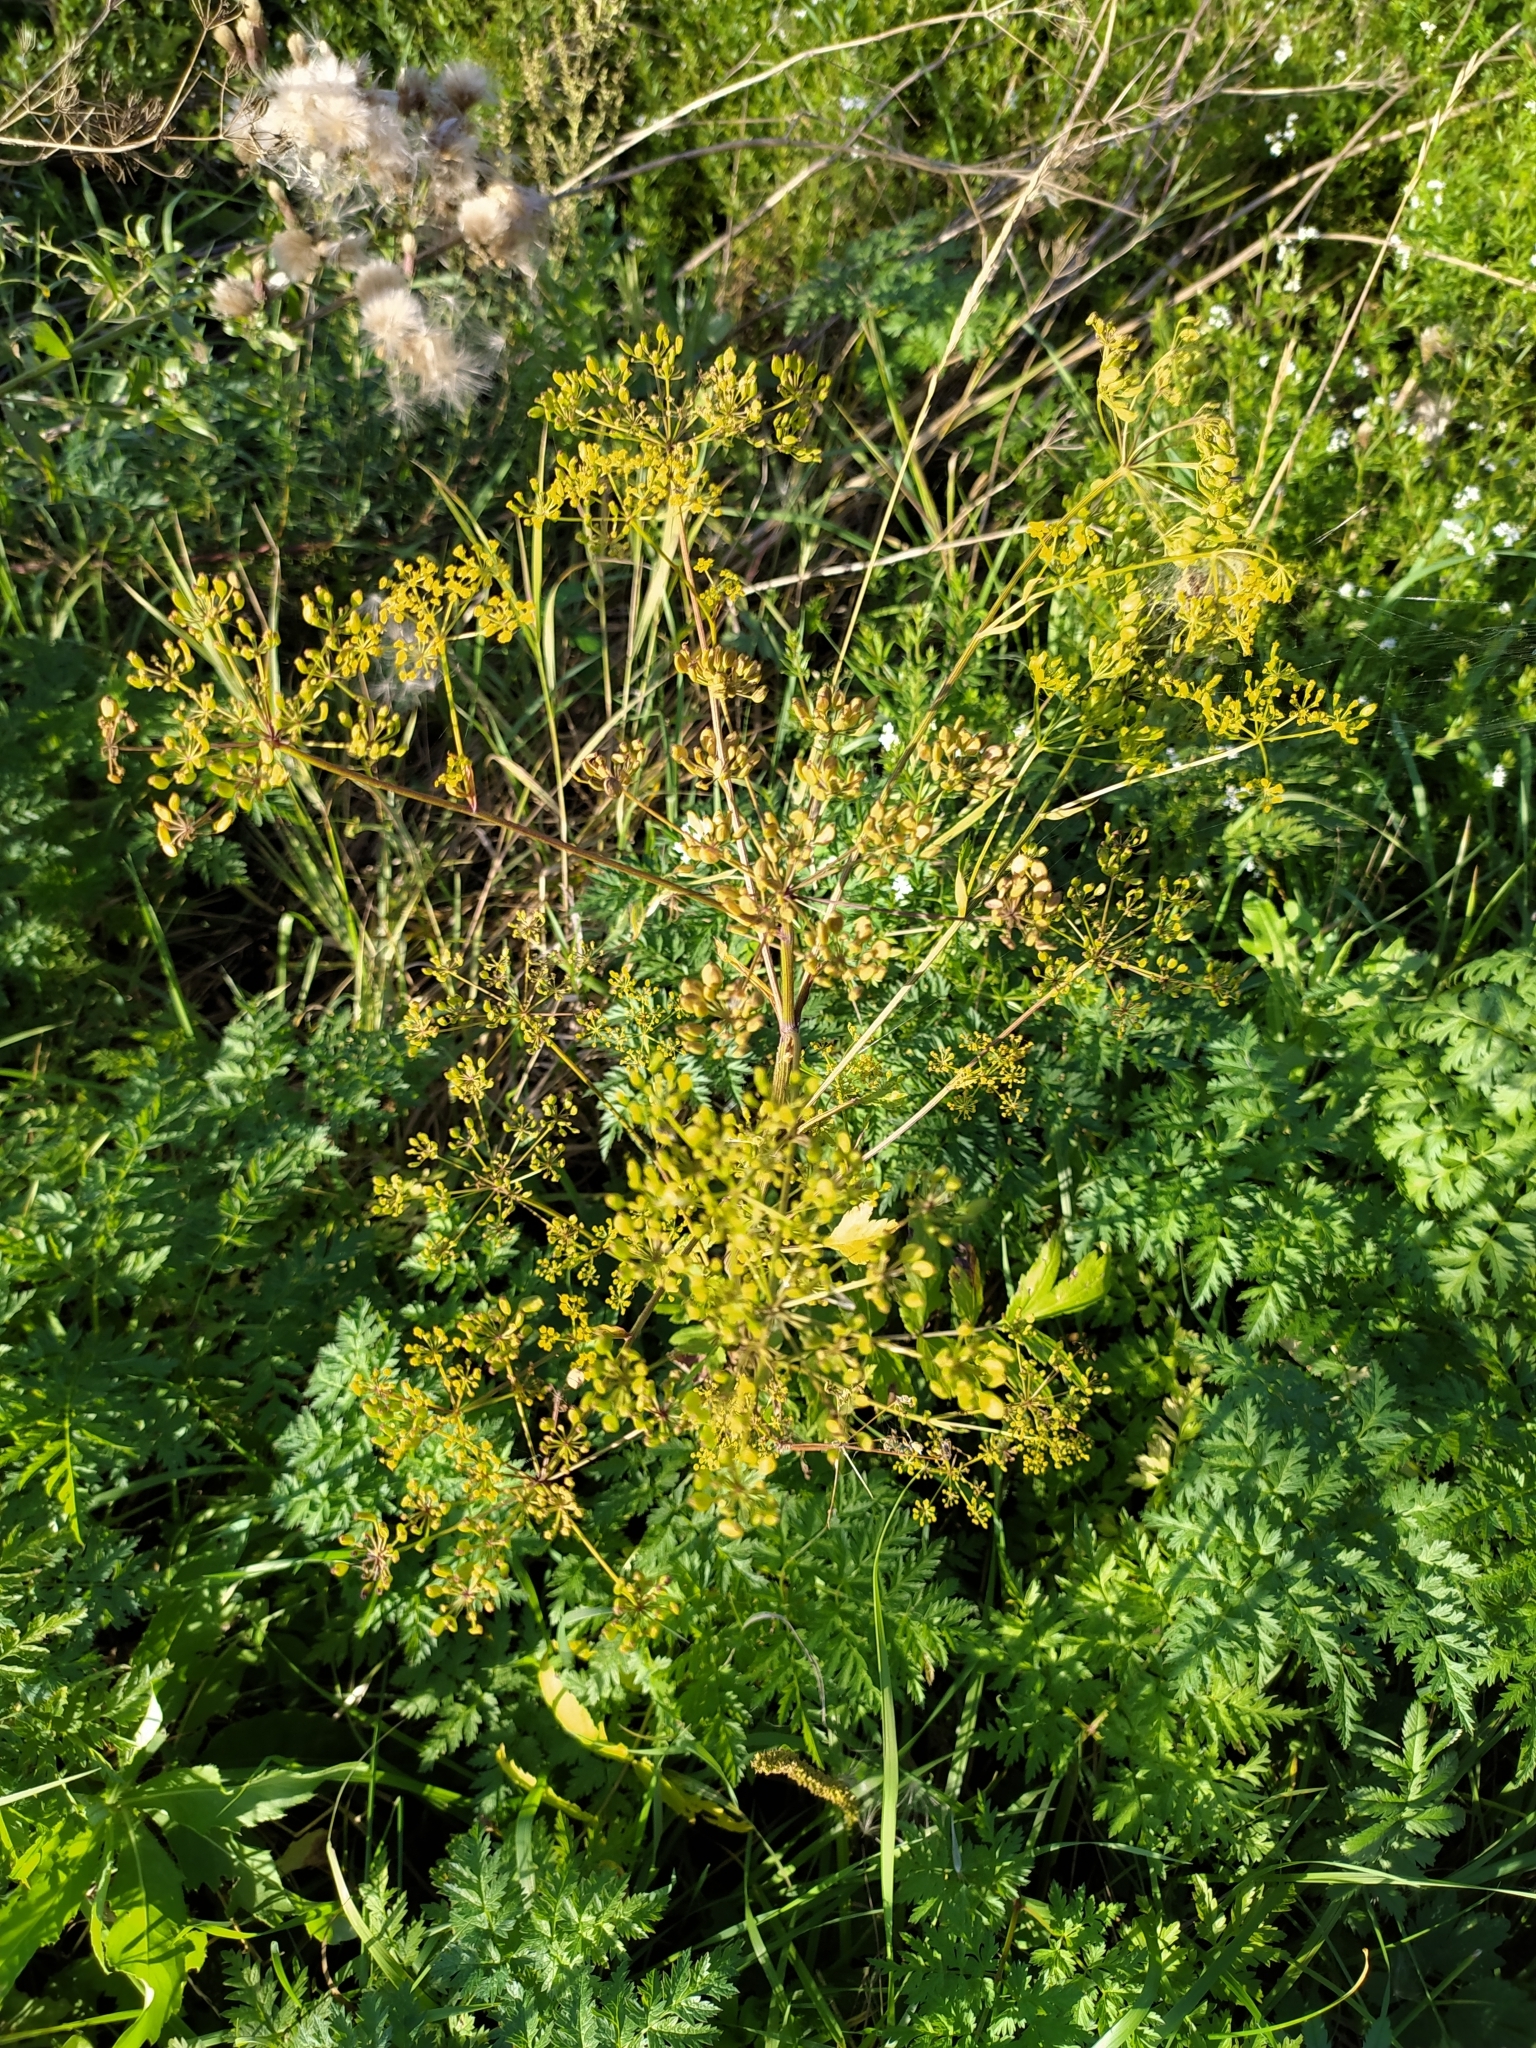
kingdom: Plantae
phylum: Tracheophyta
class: Magnoliopsida
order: Apiales
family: Apiaceae
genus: Pastinaca
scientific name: Pastinaca sativa
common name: Wild parsnip
